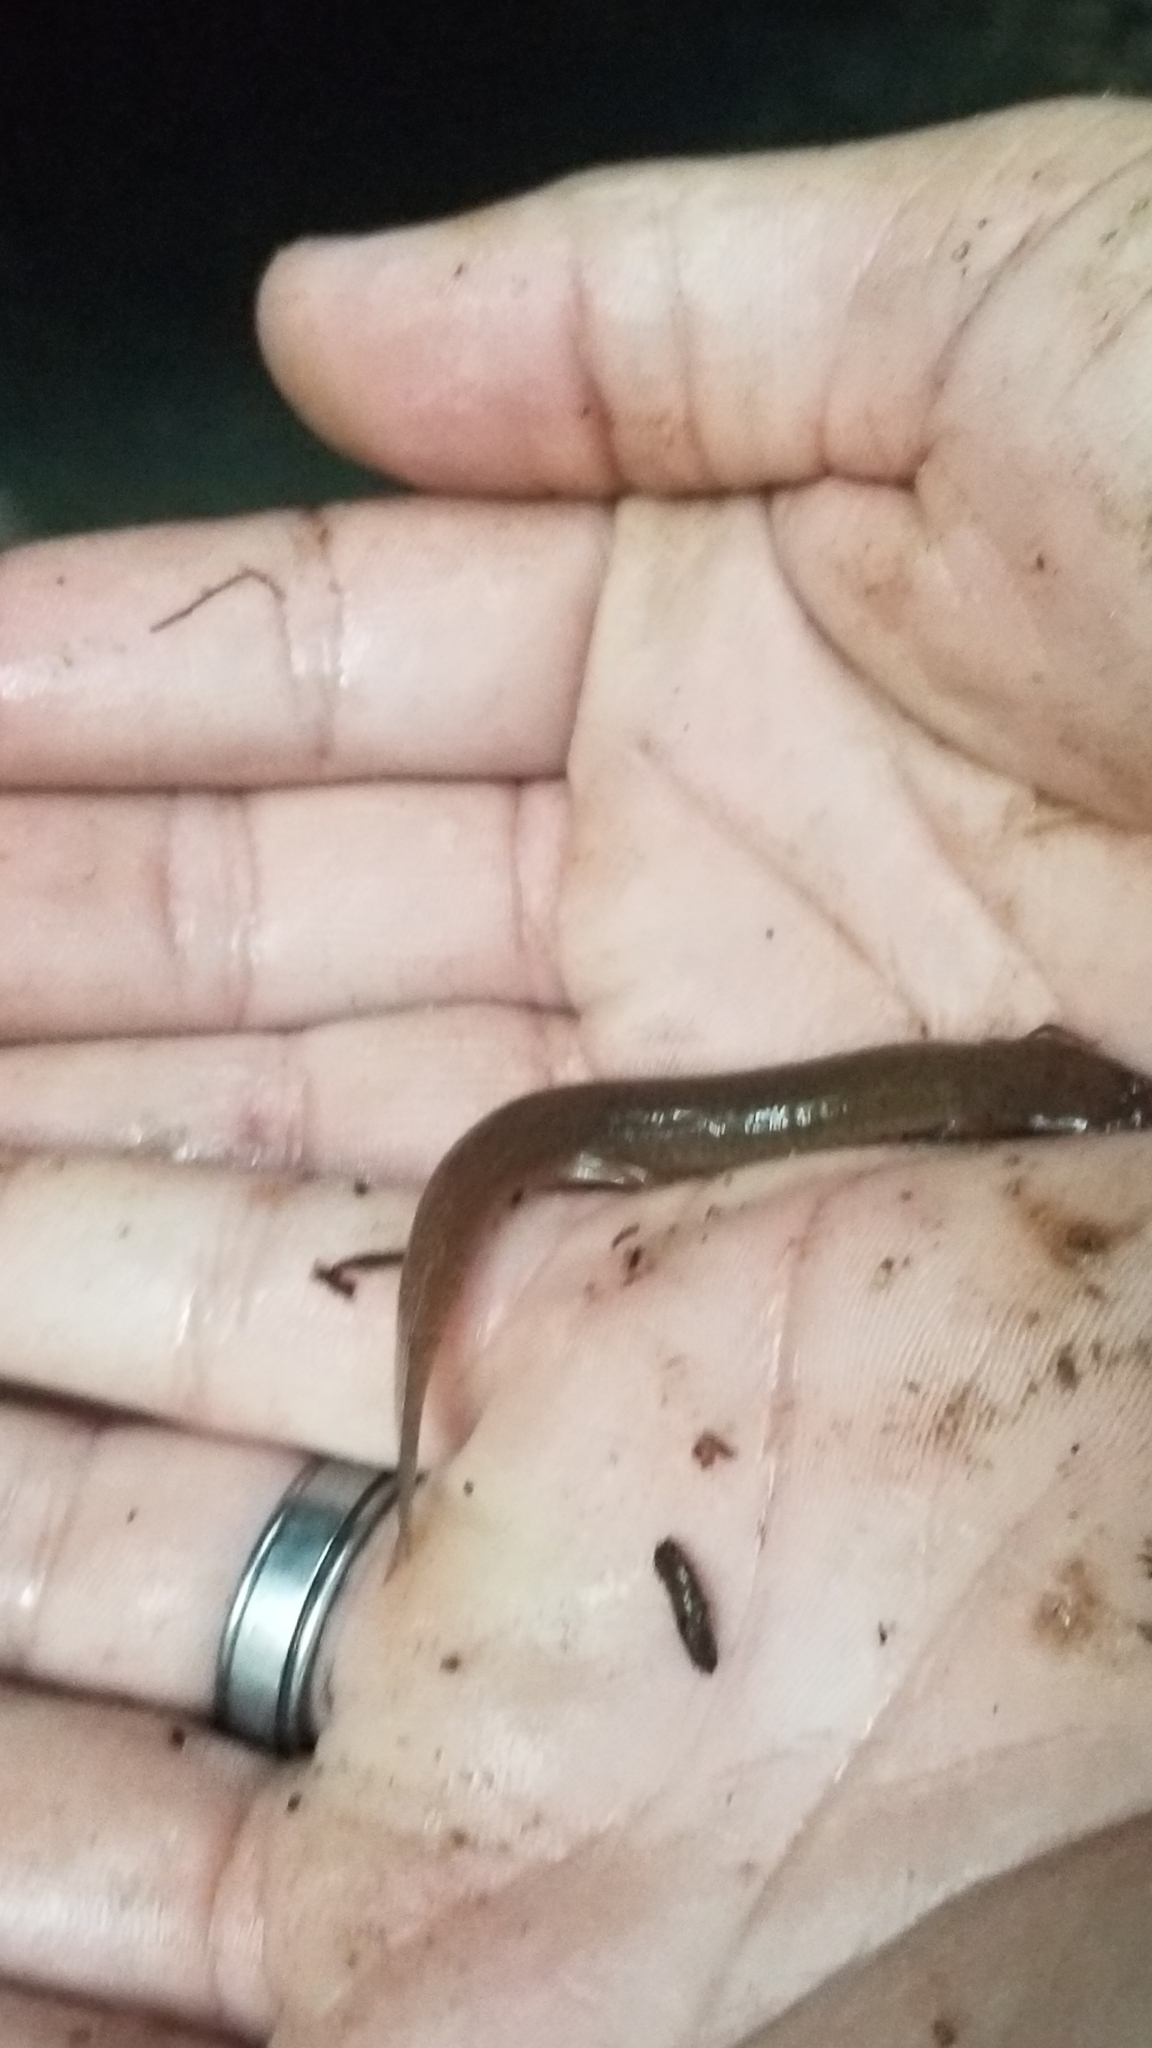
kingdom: Animalia
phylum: Chordata
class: Amphibia
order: Caudata
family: Plethodontidae
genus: Gyrinophilus
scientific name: Gyrinophilus porphyriticus
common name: Spring salamander
